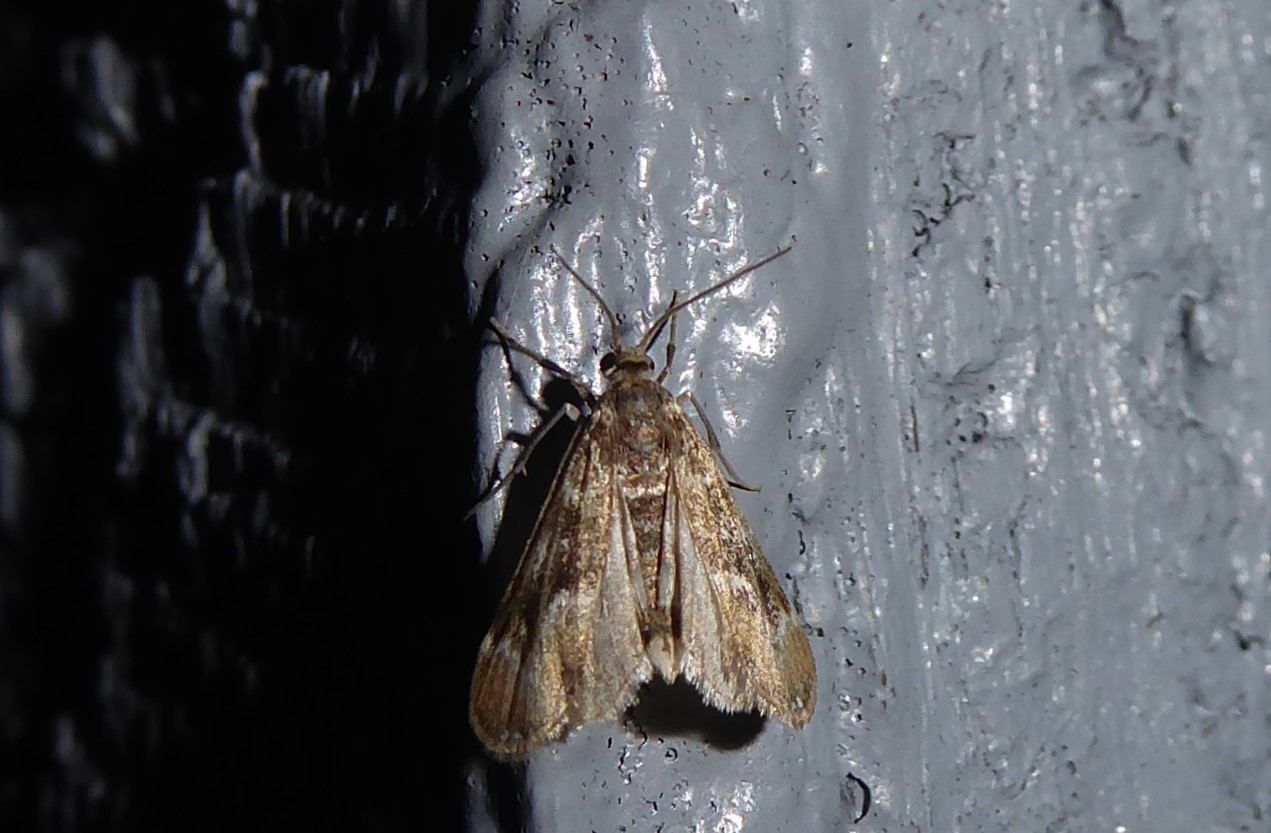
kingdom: Animalia
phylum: Arthropoda
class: Insecta
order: Lepidoptera
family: Crambidae
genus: Hygraula
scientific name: Hygraula nitens
